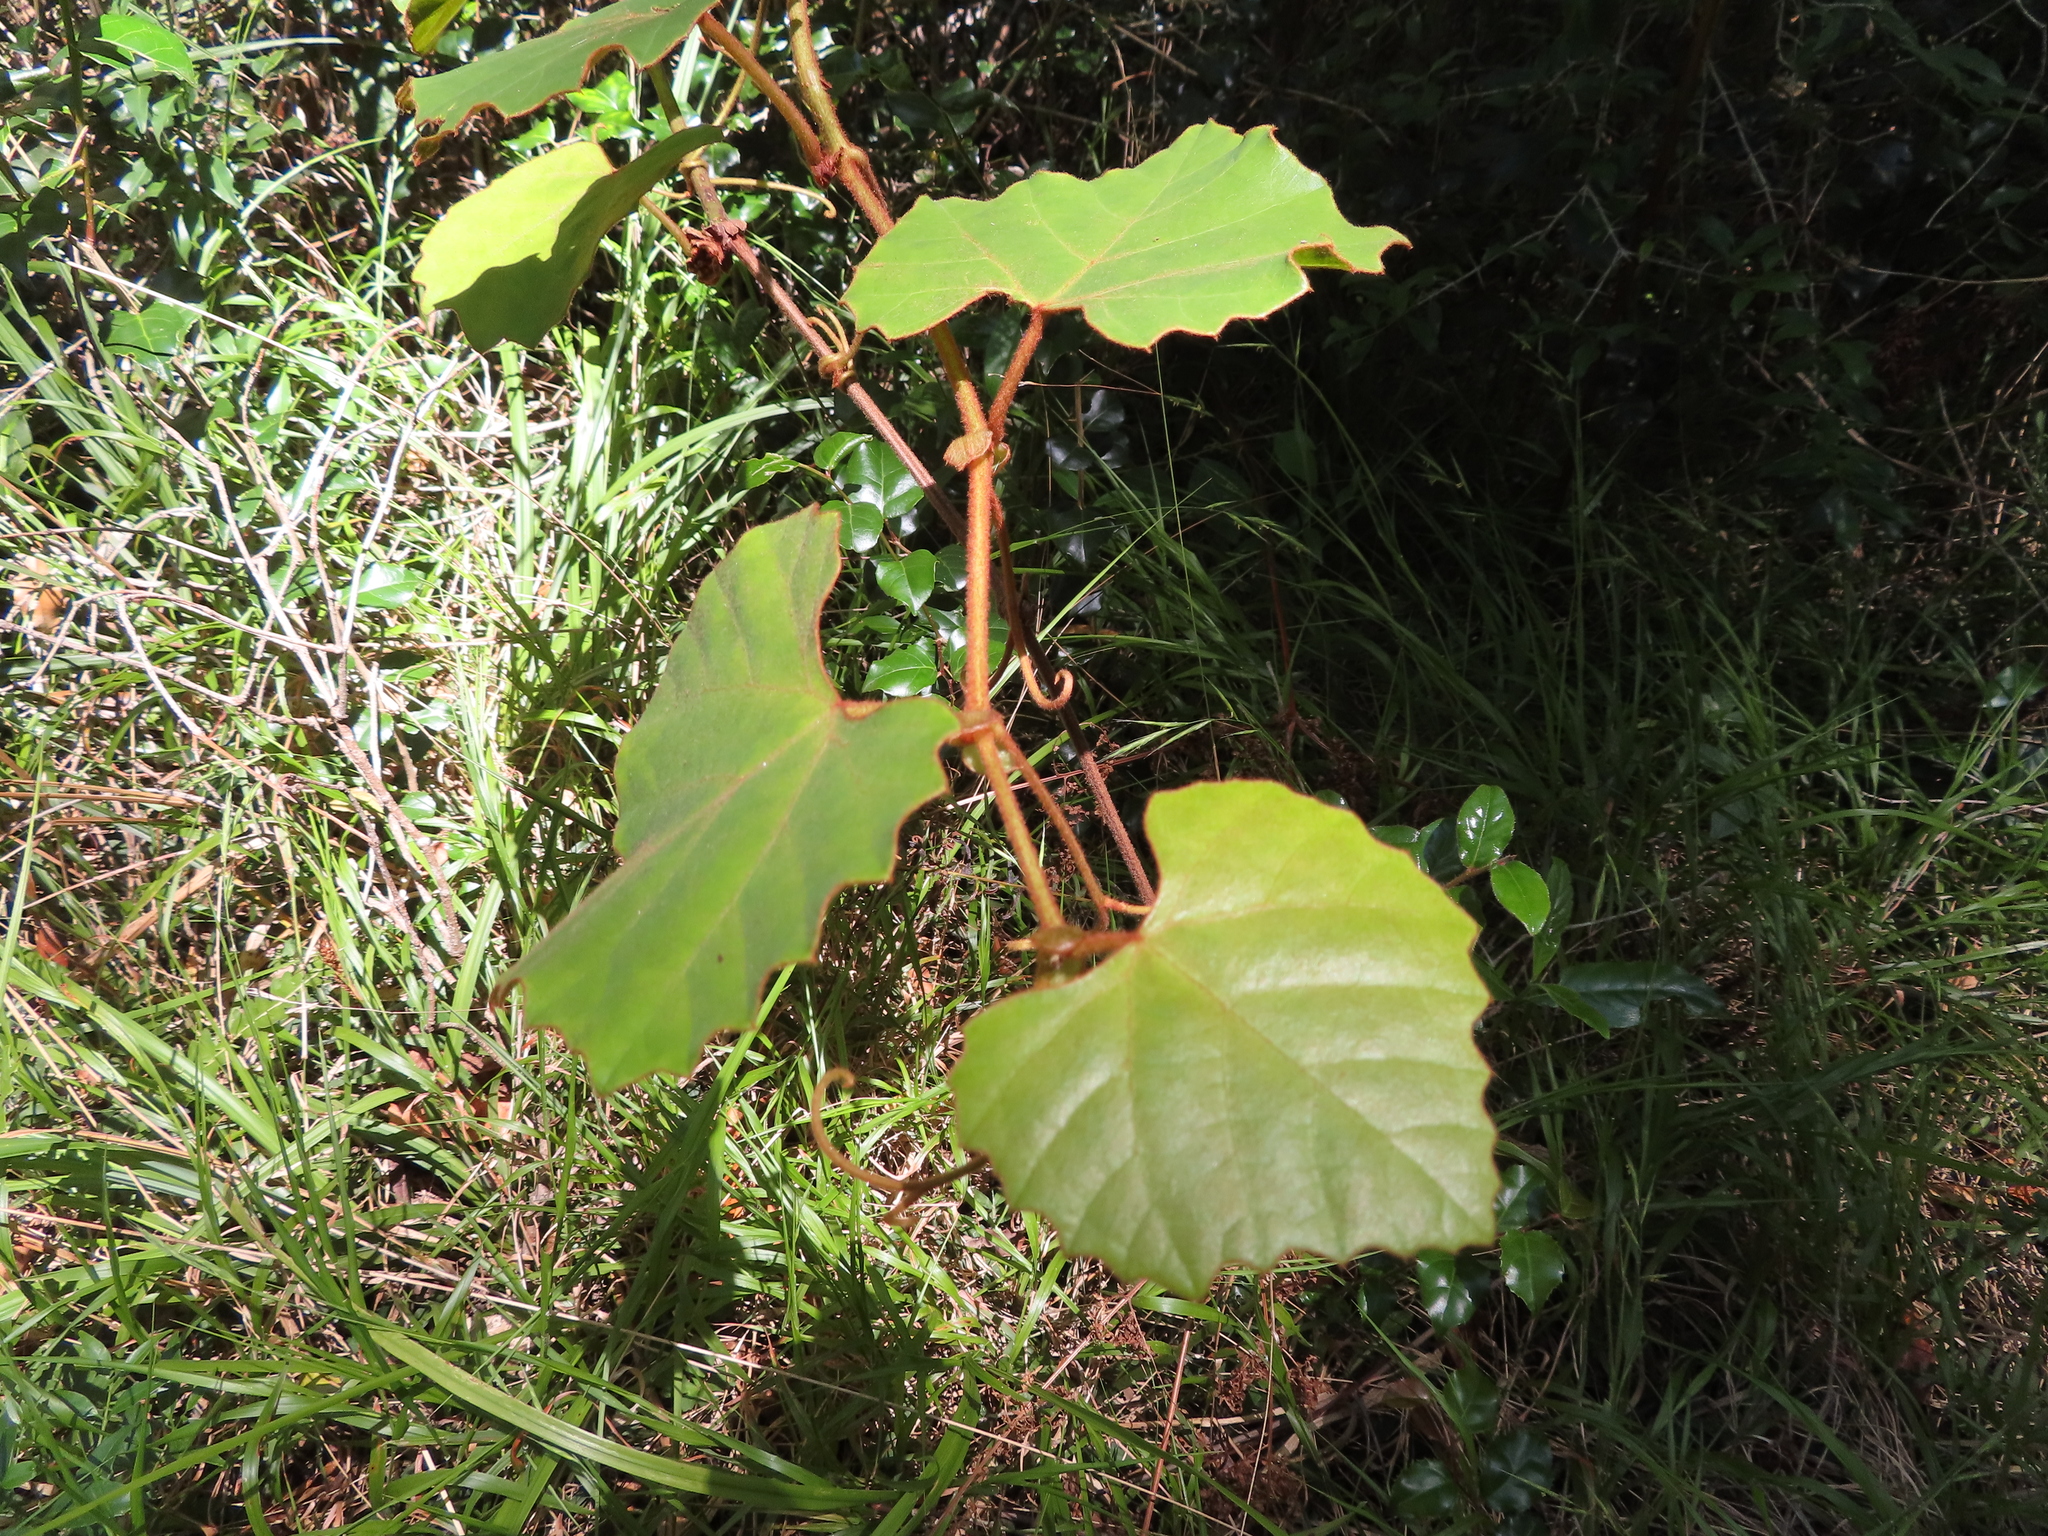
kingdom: Plantae
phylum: Tracheophyta
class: Magnoliopsida
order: Vitales
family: Vitaceae
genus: Rhoicissus
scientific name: Rhoicissus tomentosa
